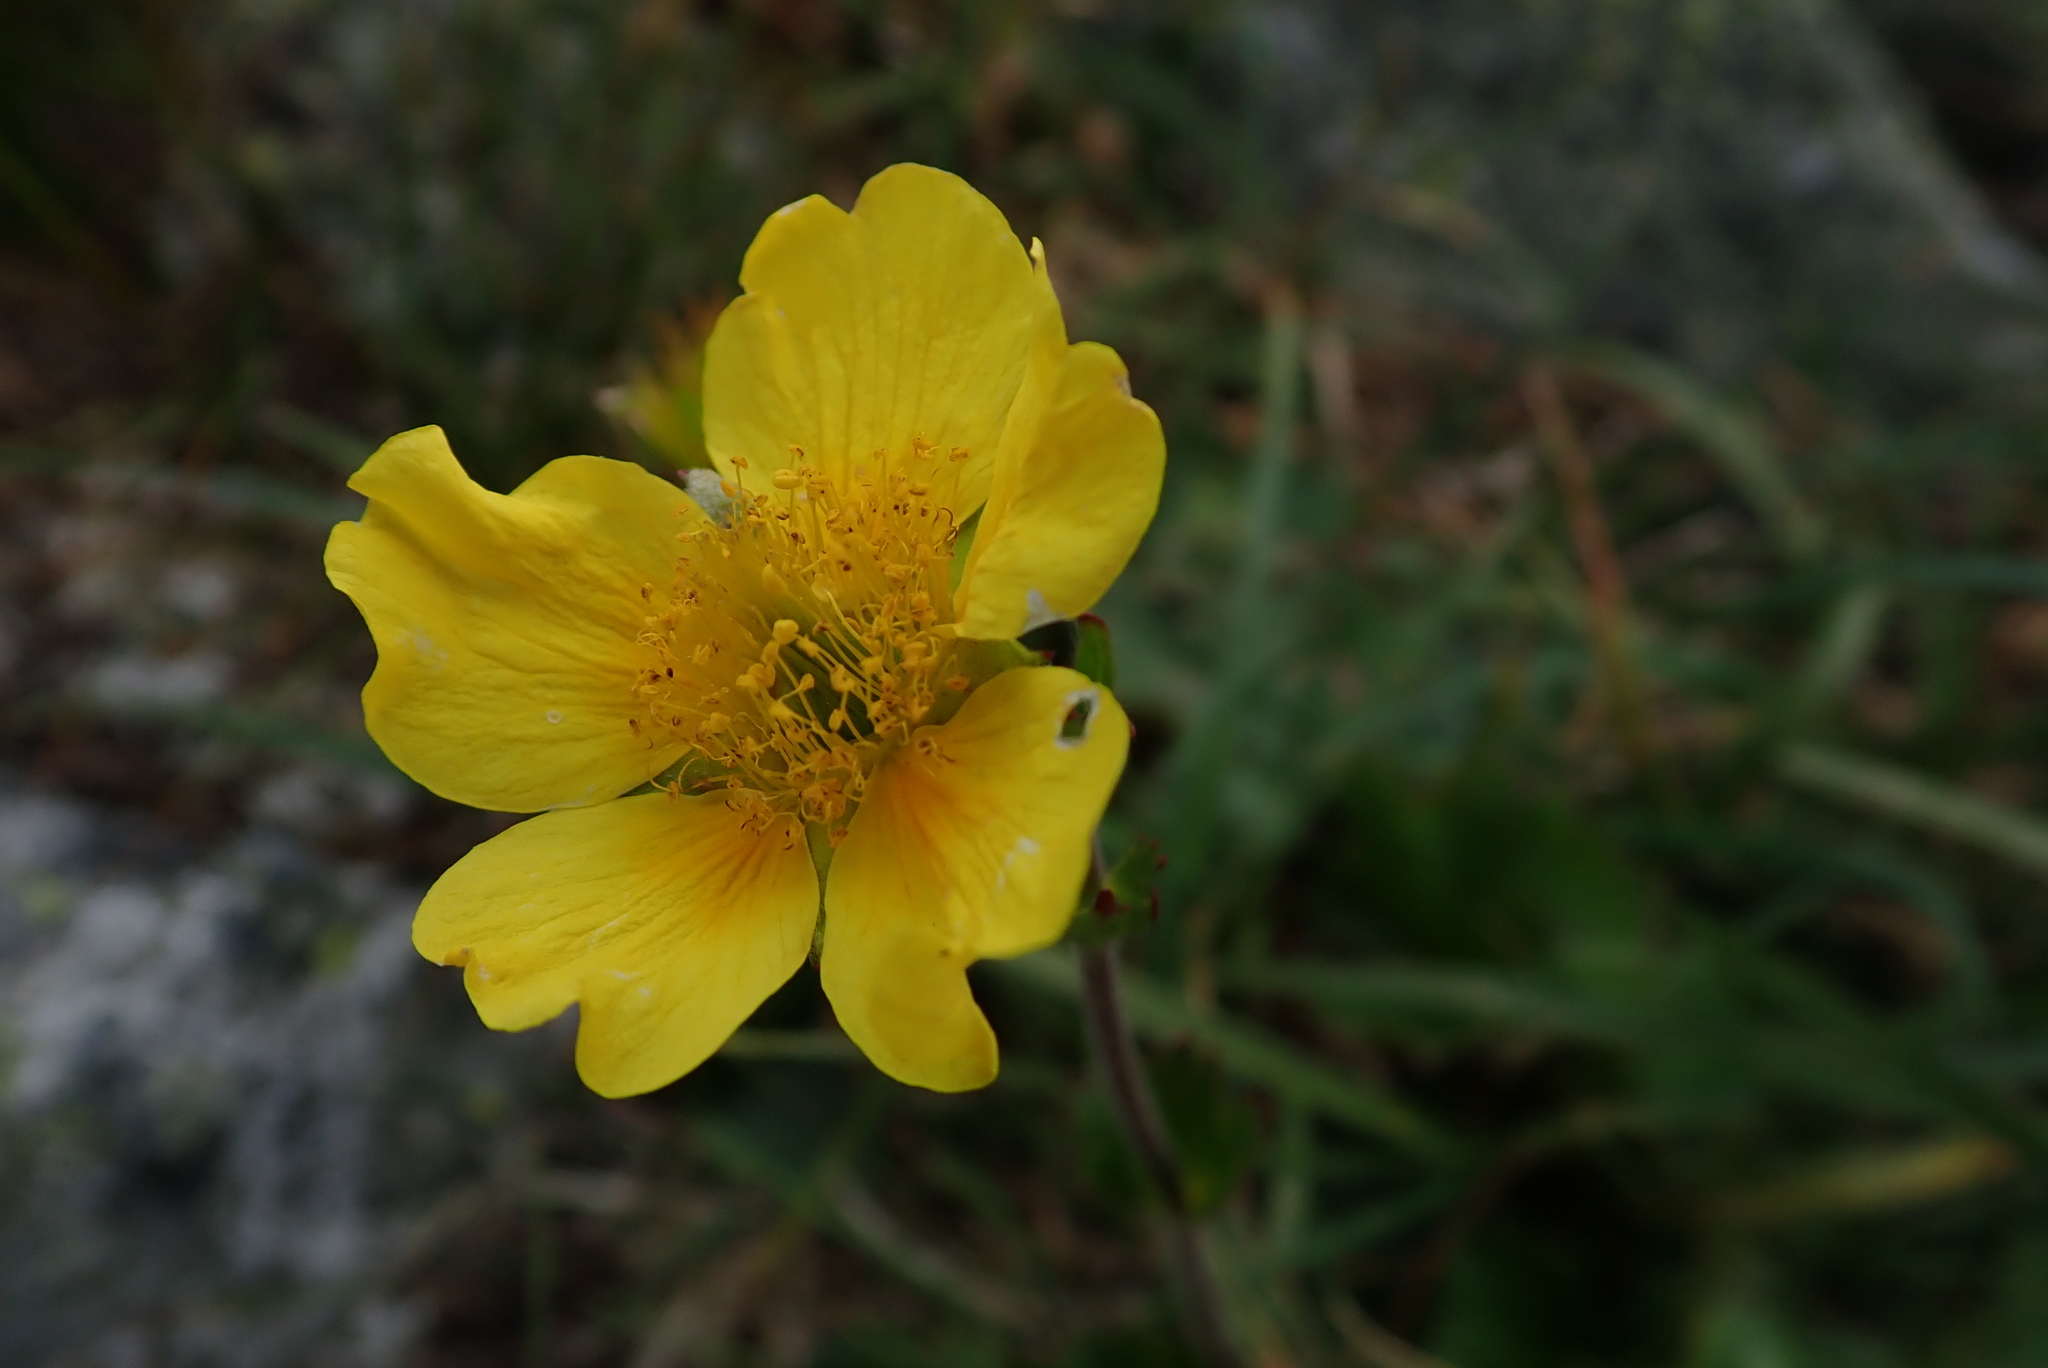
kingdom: Plantae
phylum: Tracheophyta
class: Magnoliopsida
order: Rosales
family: Rosaceae
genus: Geum
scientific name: Geum peckii
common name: Eastern mountain avens
